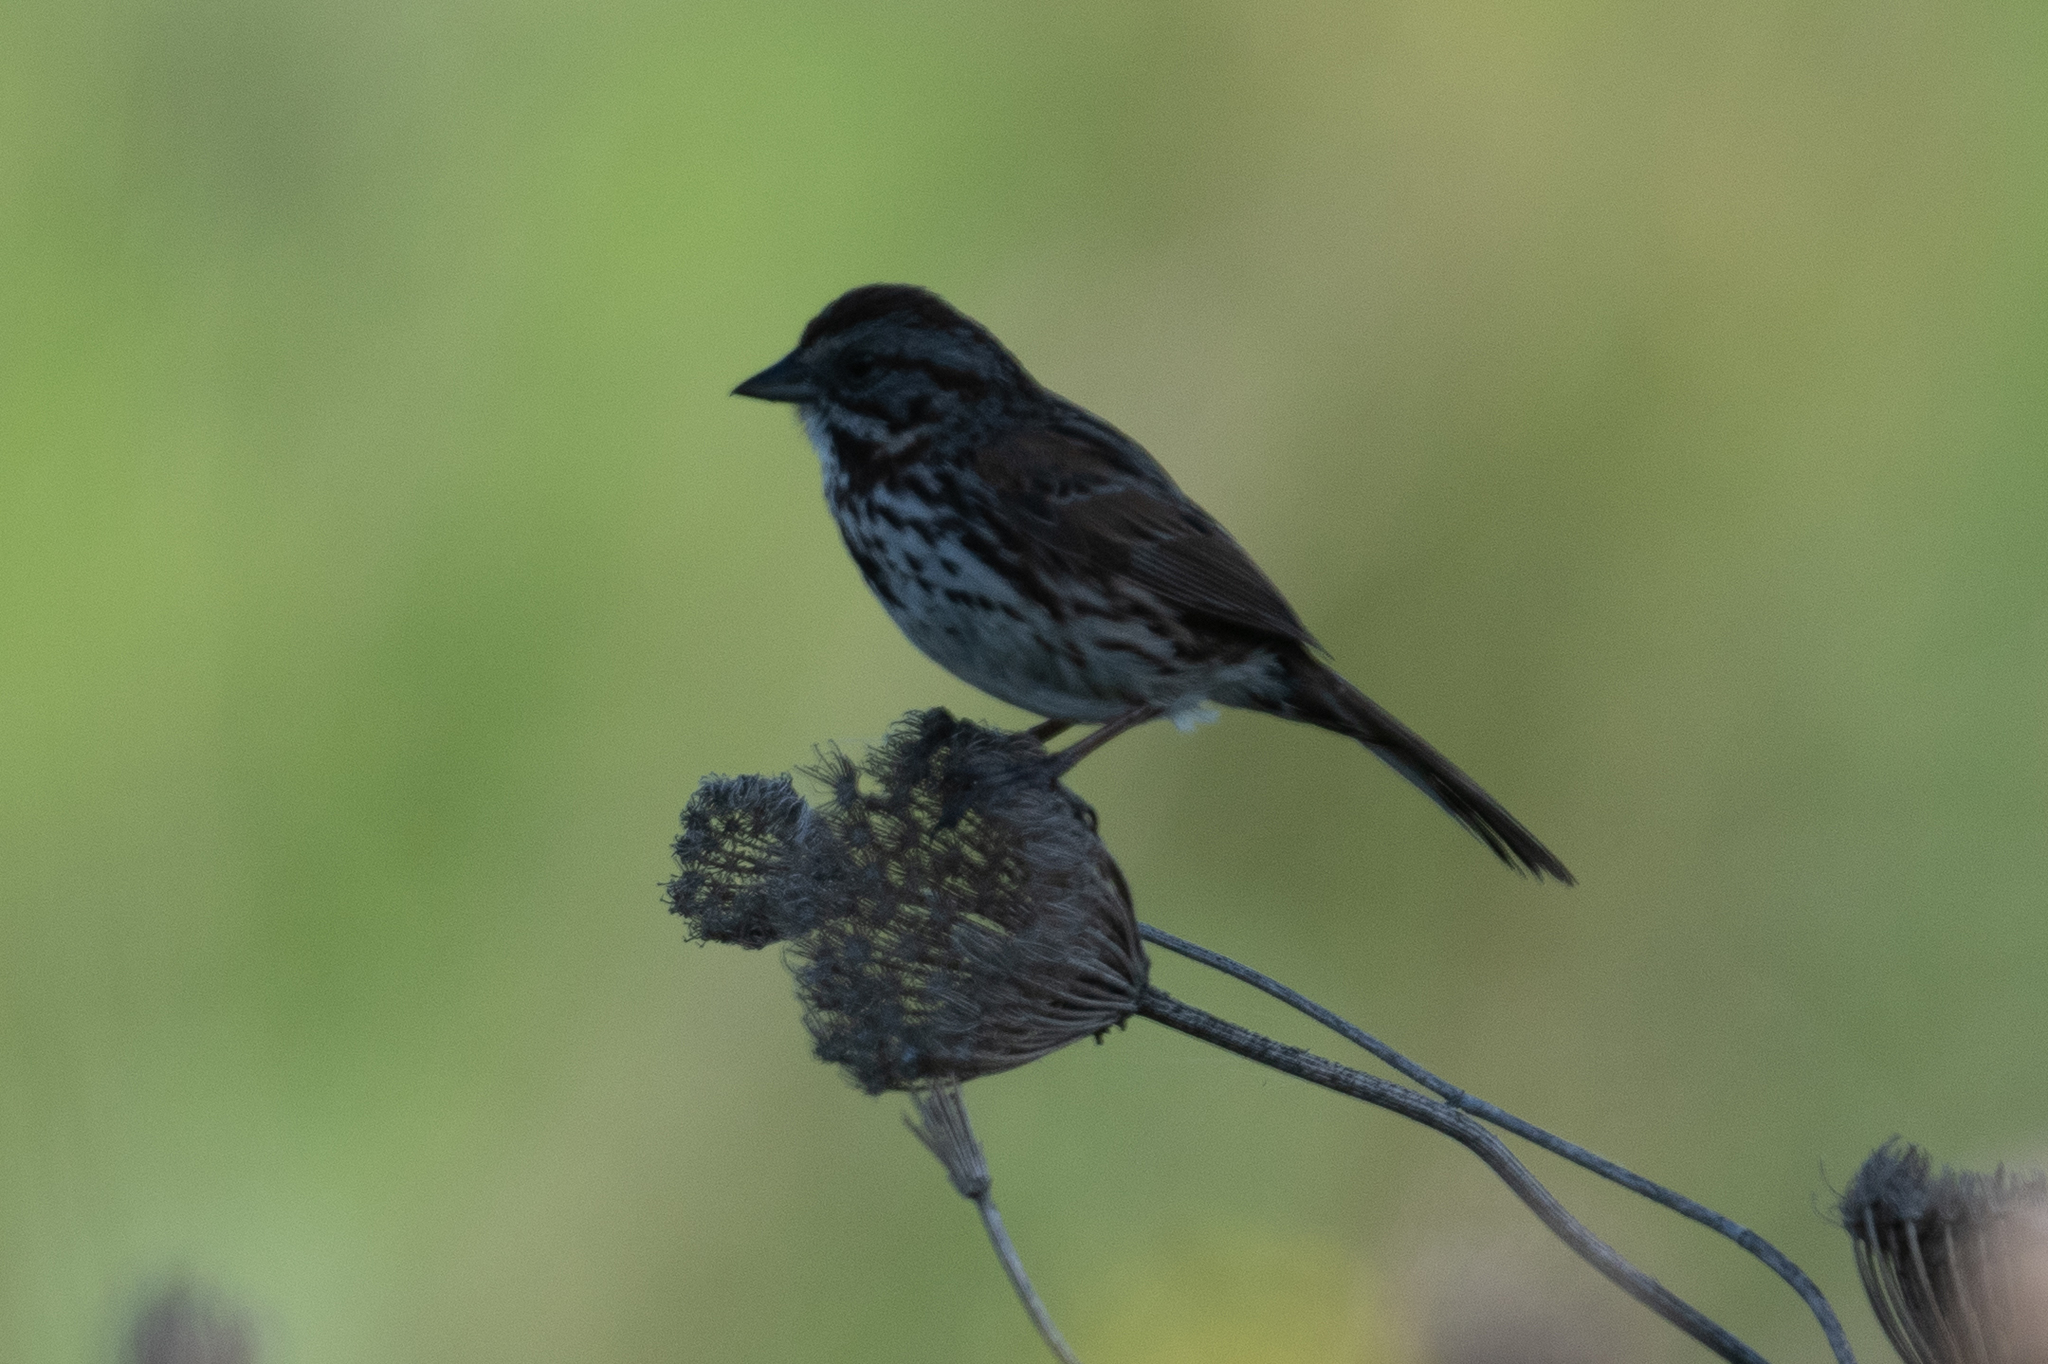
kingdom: Animalia
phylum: Chordata
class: Aves
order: Passeriformes
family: Passerellidae
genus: Melospiza
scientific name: Melospiza melodia
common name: Song sparrow
